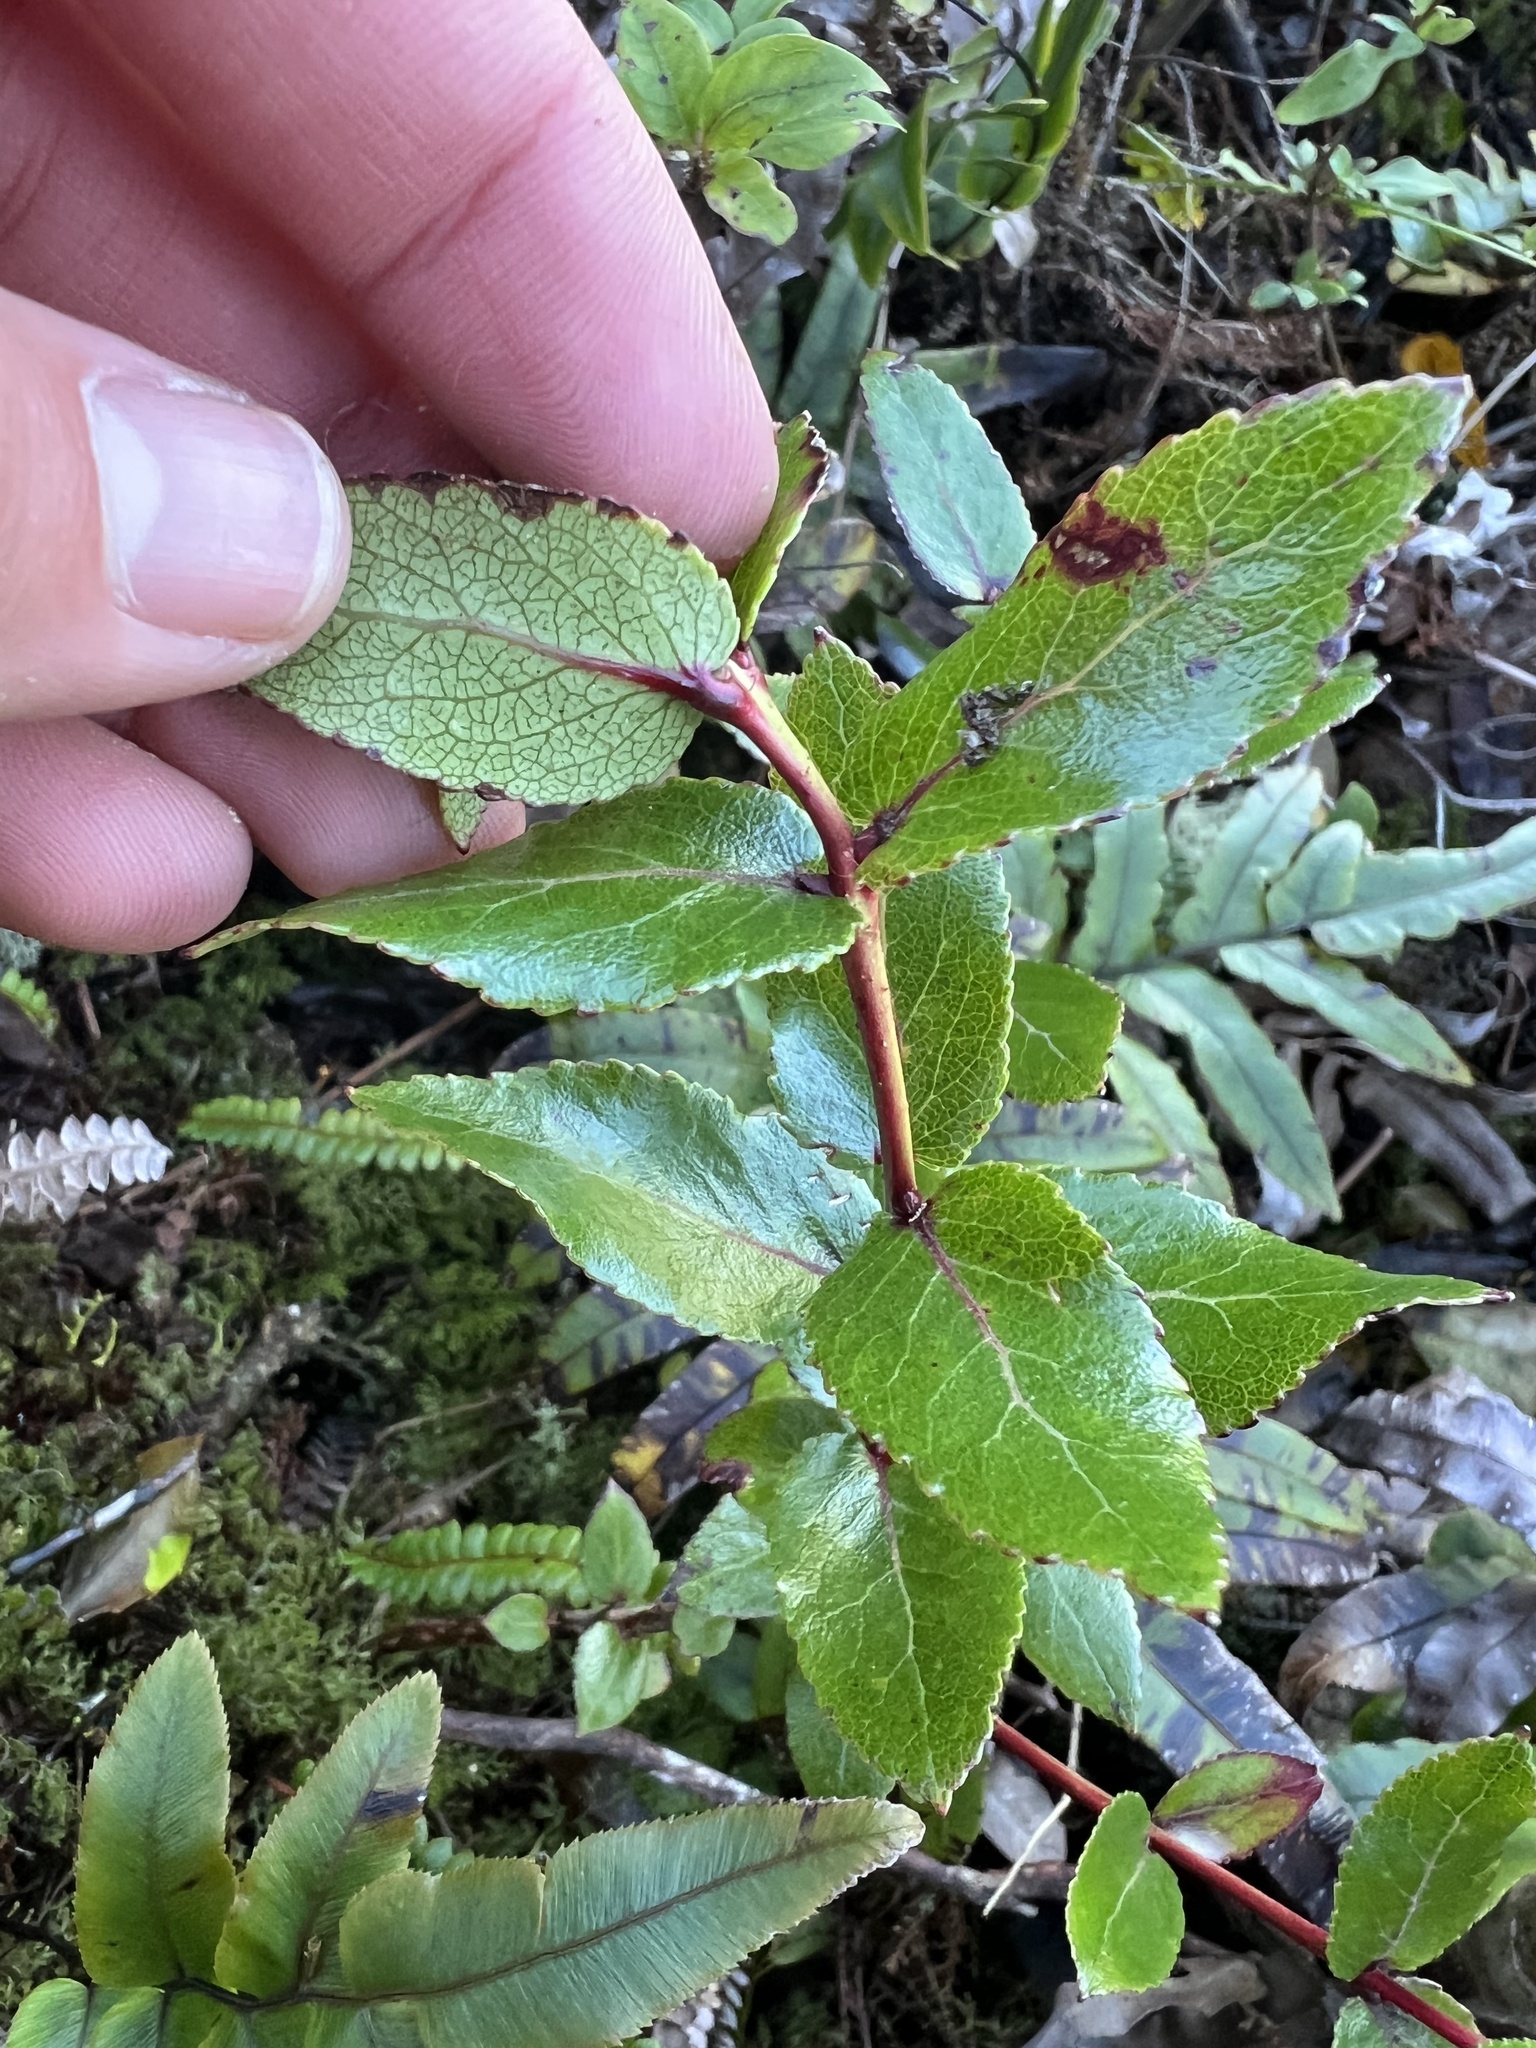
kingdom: Plantae
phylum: Tracheophyta
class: Magnoliopsida
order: Ericales
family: Ericaceae
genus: Gaultheria
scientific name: Gaultheria oppositifolia
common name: Snowberry
